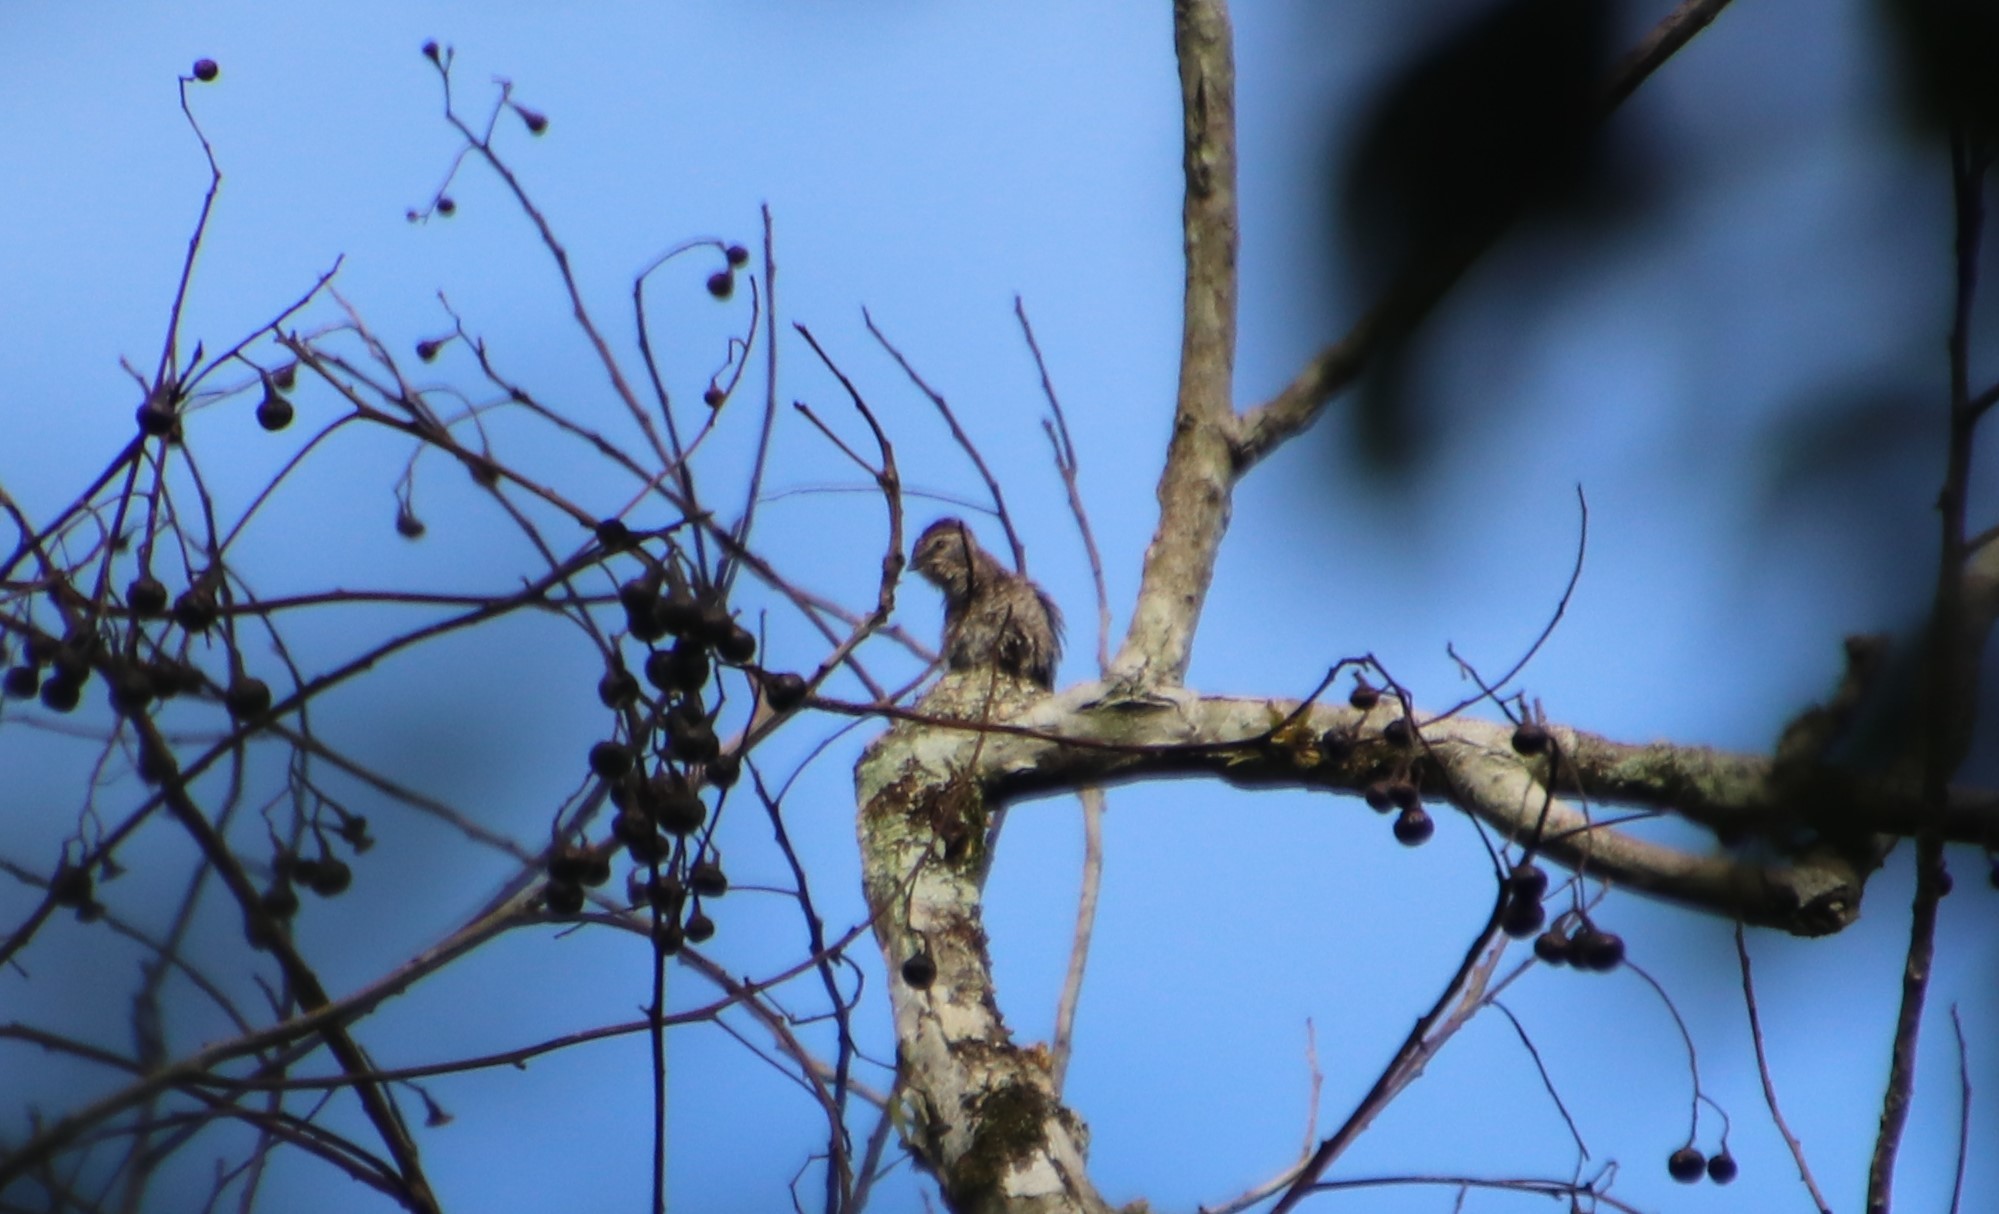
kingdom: Animalia
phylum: Chordata
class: Aves
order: Passeriformes
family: Cotingidae
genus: Iodopleura
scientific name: Iodopleura pipra
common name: Buff-throated purpletuft
